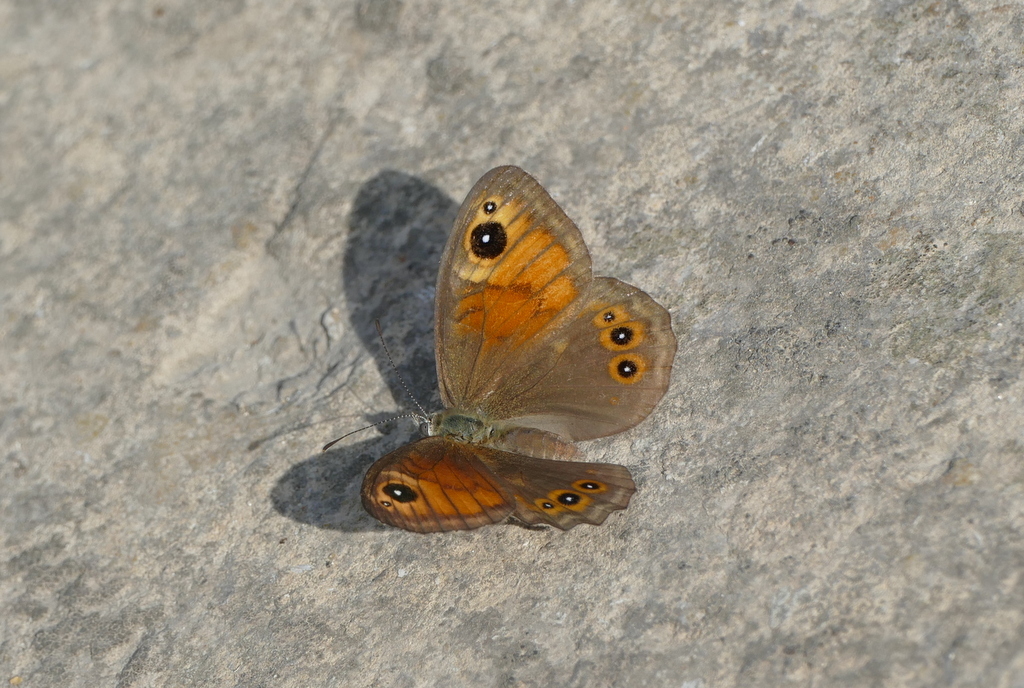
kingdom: Animalia
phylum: Arthropoda
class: Insecta
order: Lepidoptera
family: Nymphalidae
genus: Pararge
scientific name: Pararge Lasiommata maera
